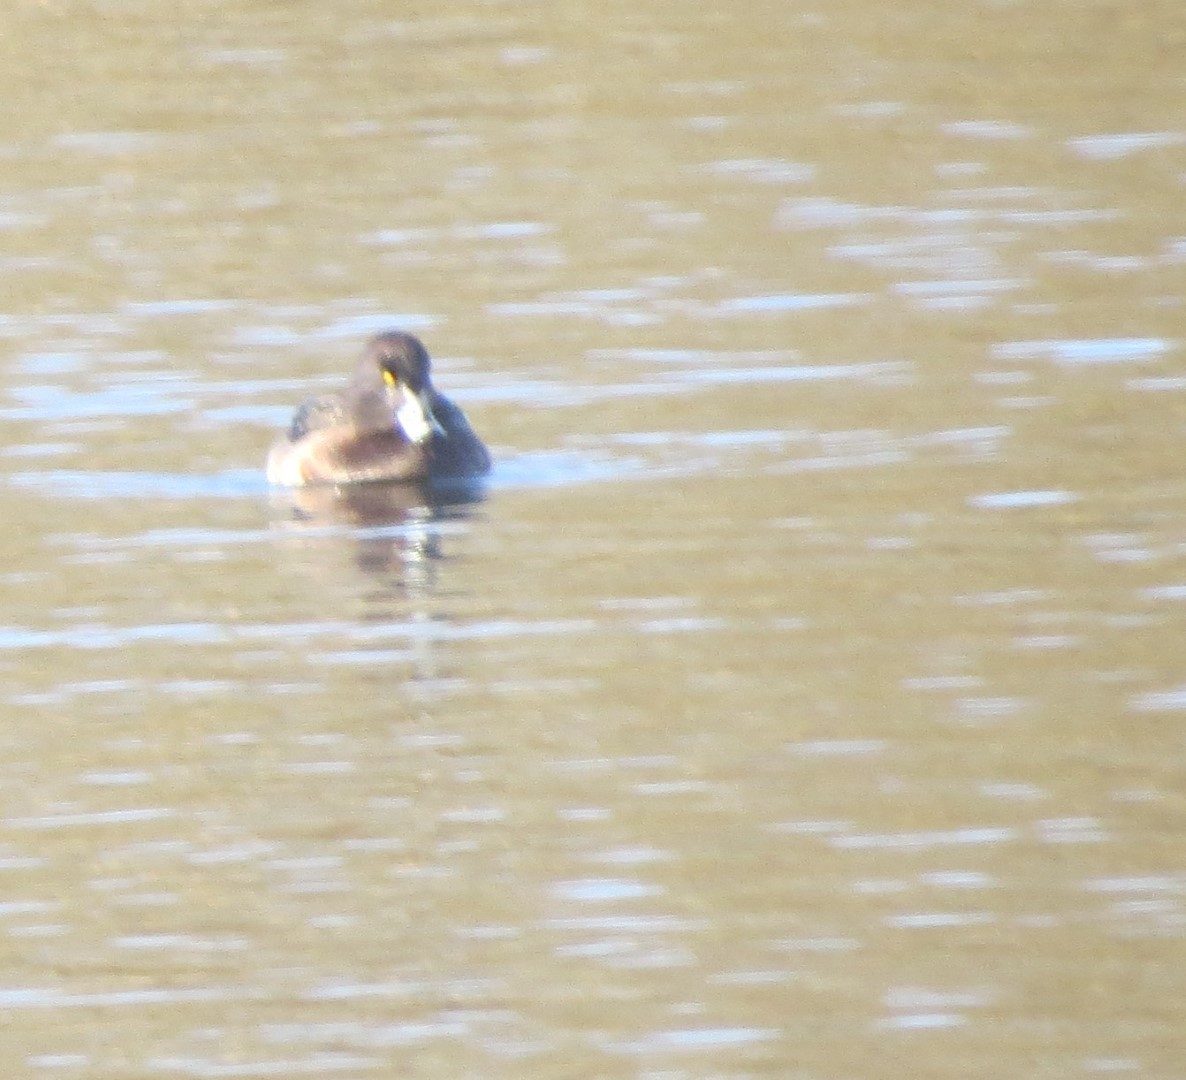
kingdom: Animalia
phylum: Chordata
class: Aves
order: Anseriformes
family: Anatidae
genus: Aythya
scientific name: Aythya fuligula
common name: Tufted duck
